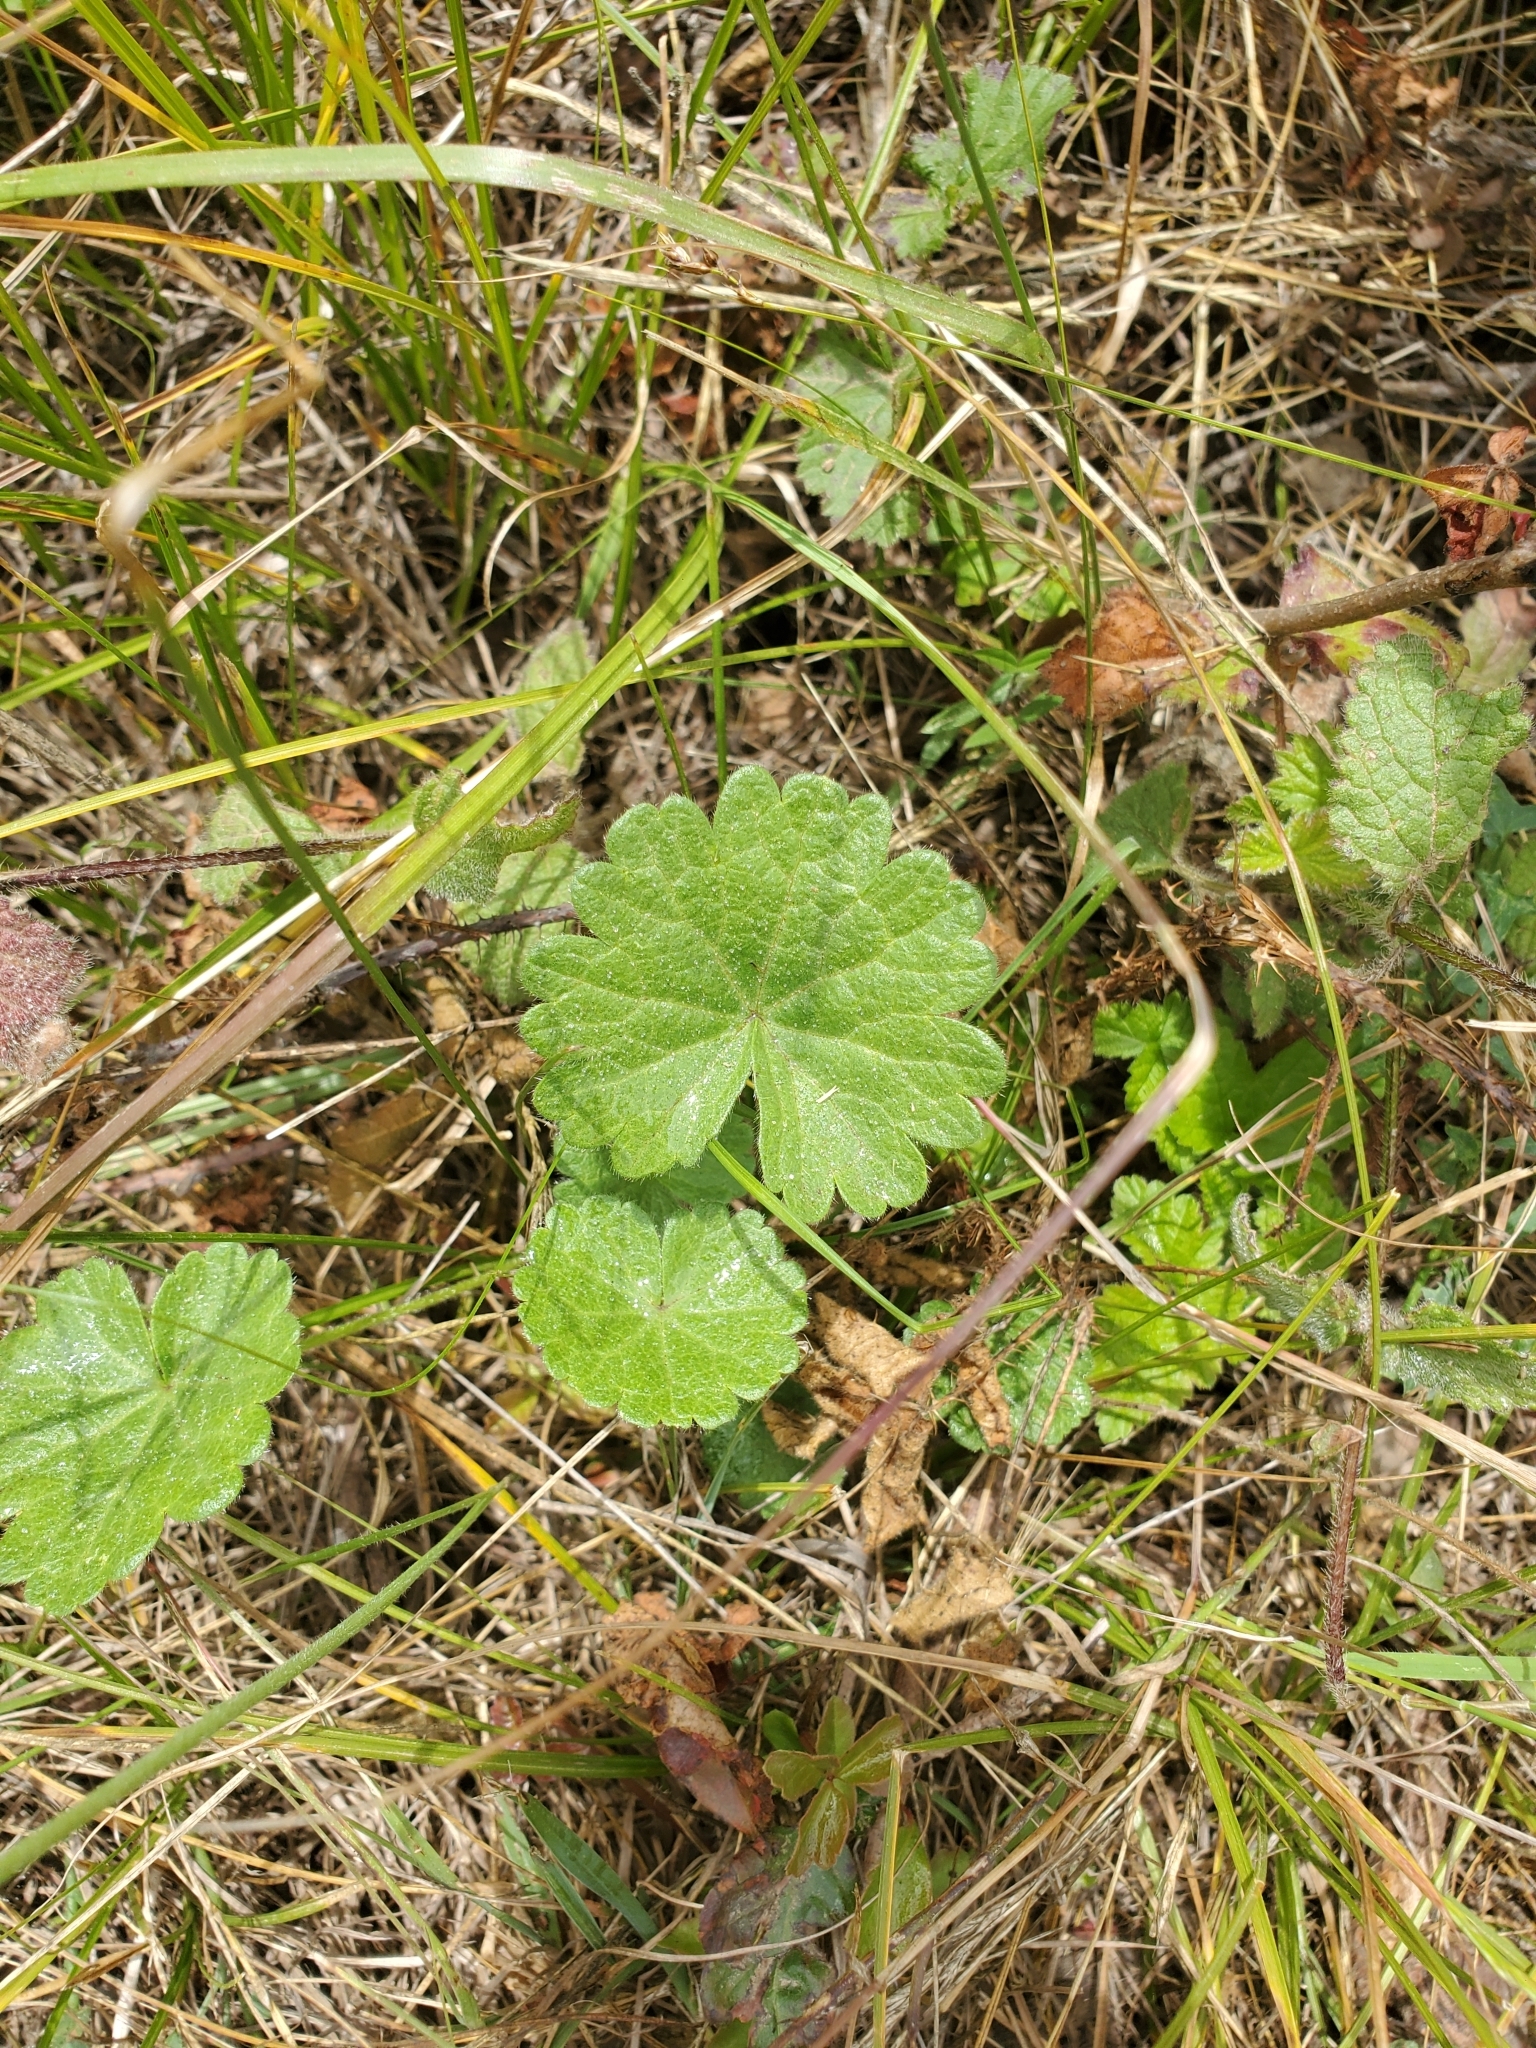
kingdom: Plantae
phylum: Tracheophyta
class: Magnoliopsida
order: Malvales
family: Malvaceae
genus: Sidalcea
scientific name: Sidalcea malviflora
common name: Greek mallow
